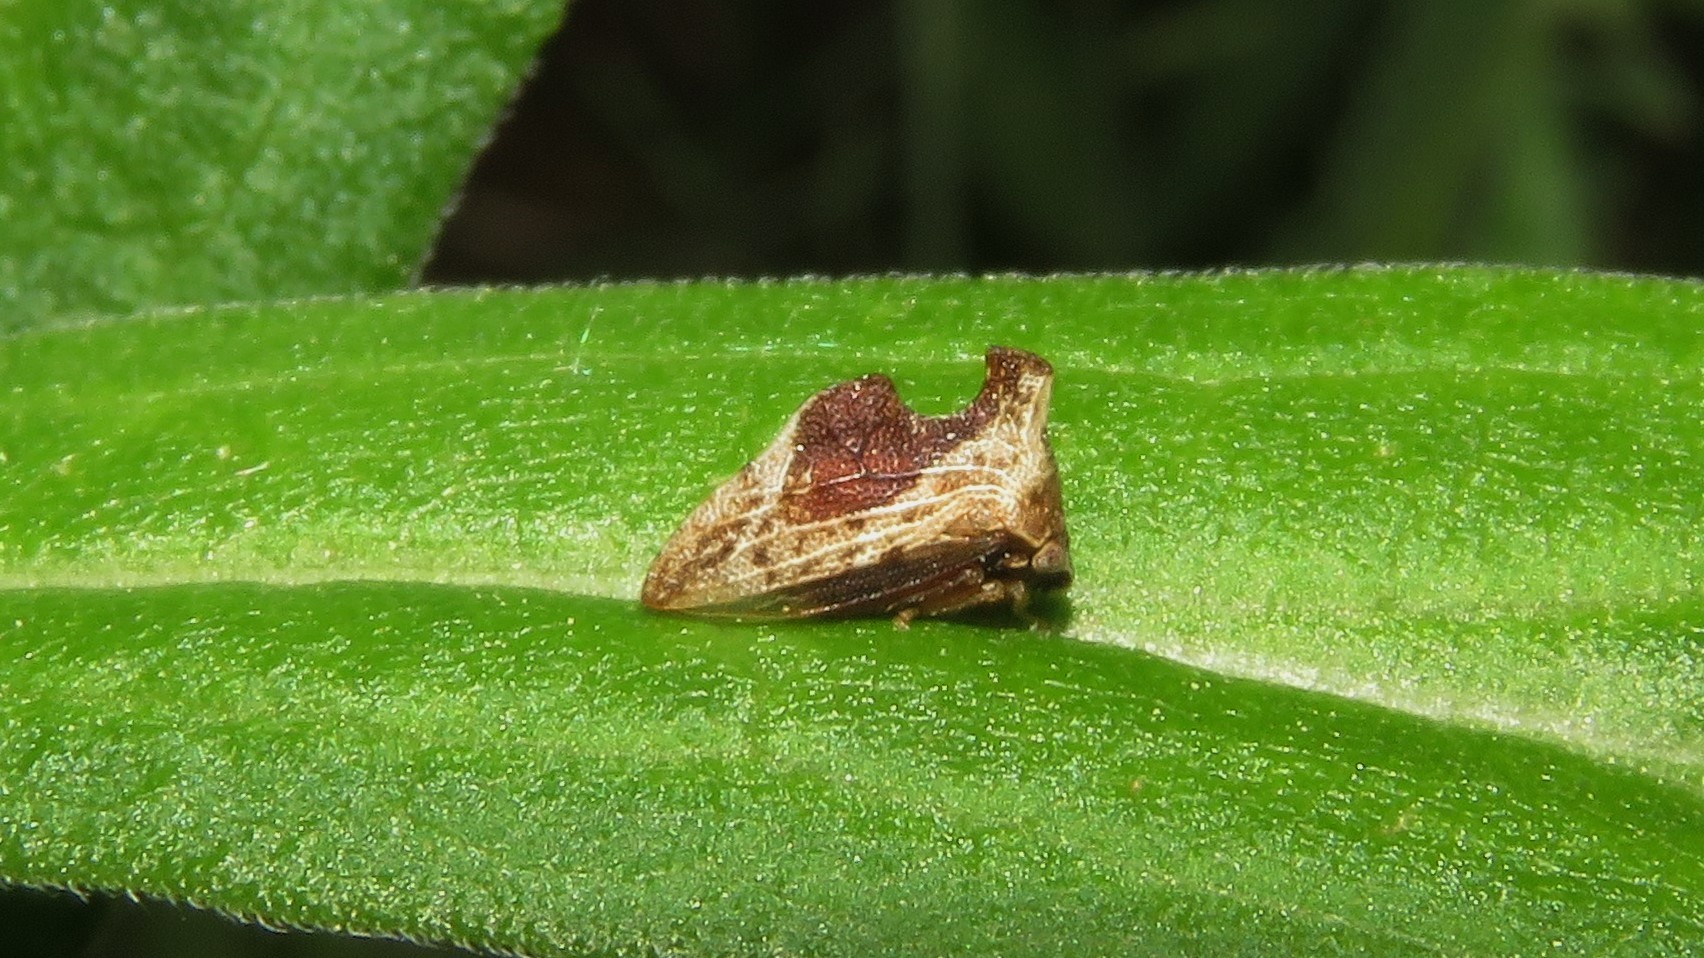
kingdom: Animalia
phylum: Arthropoda
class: Insecta
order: Hemiptera
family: Membracidae
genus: Entylia
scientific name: Entylia carinata
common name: Keeled treehopper
